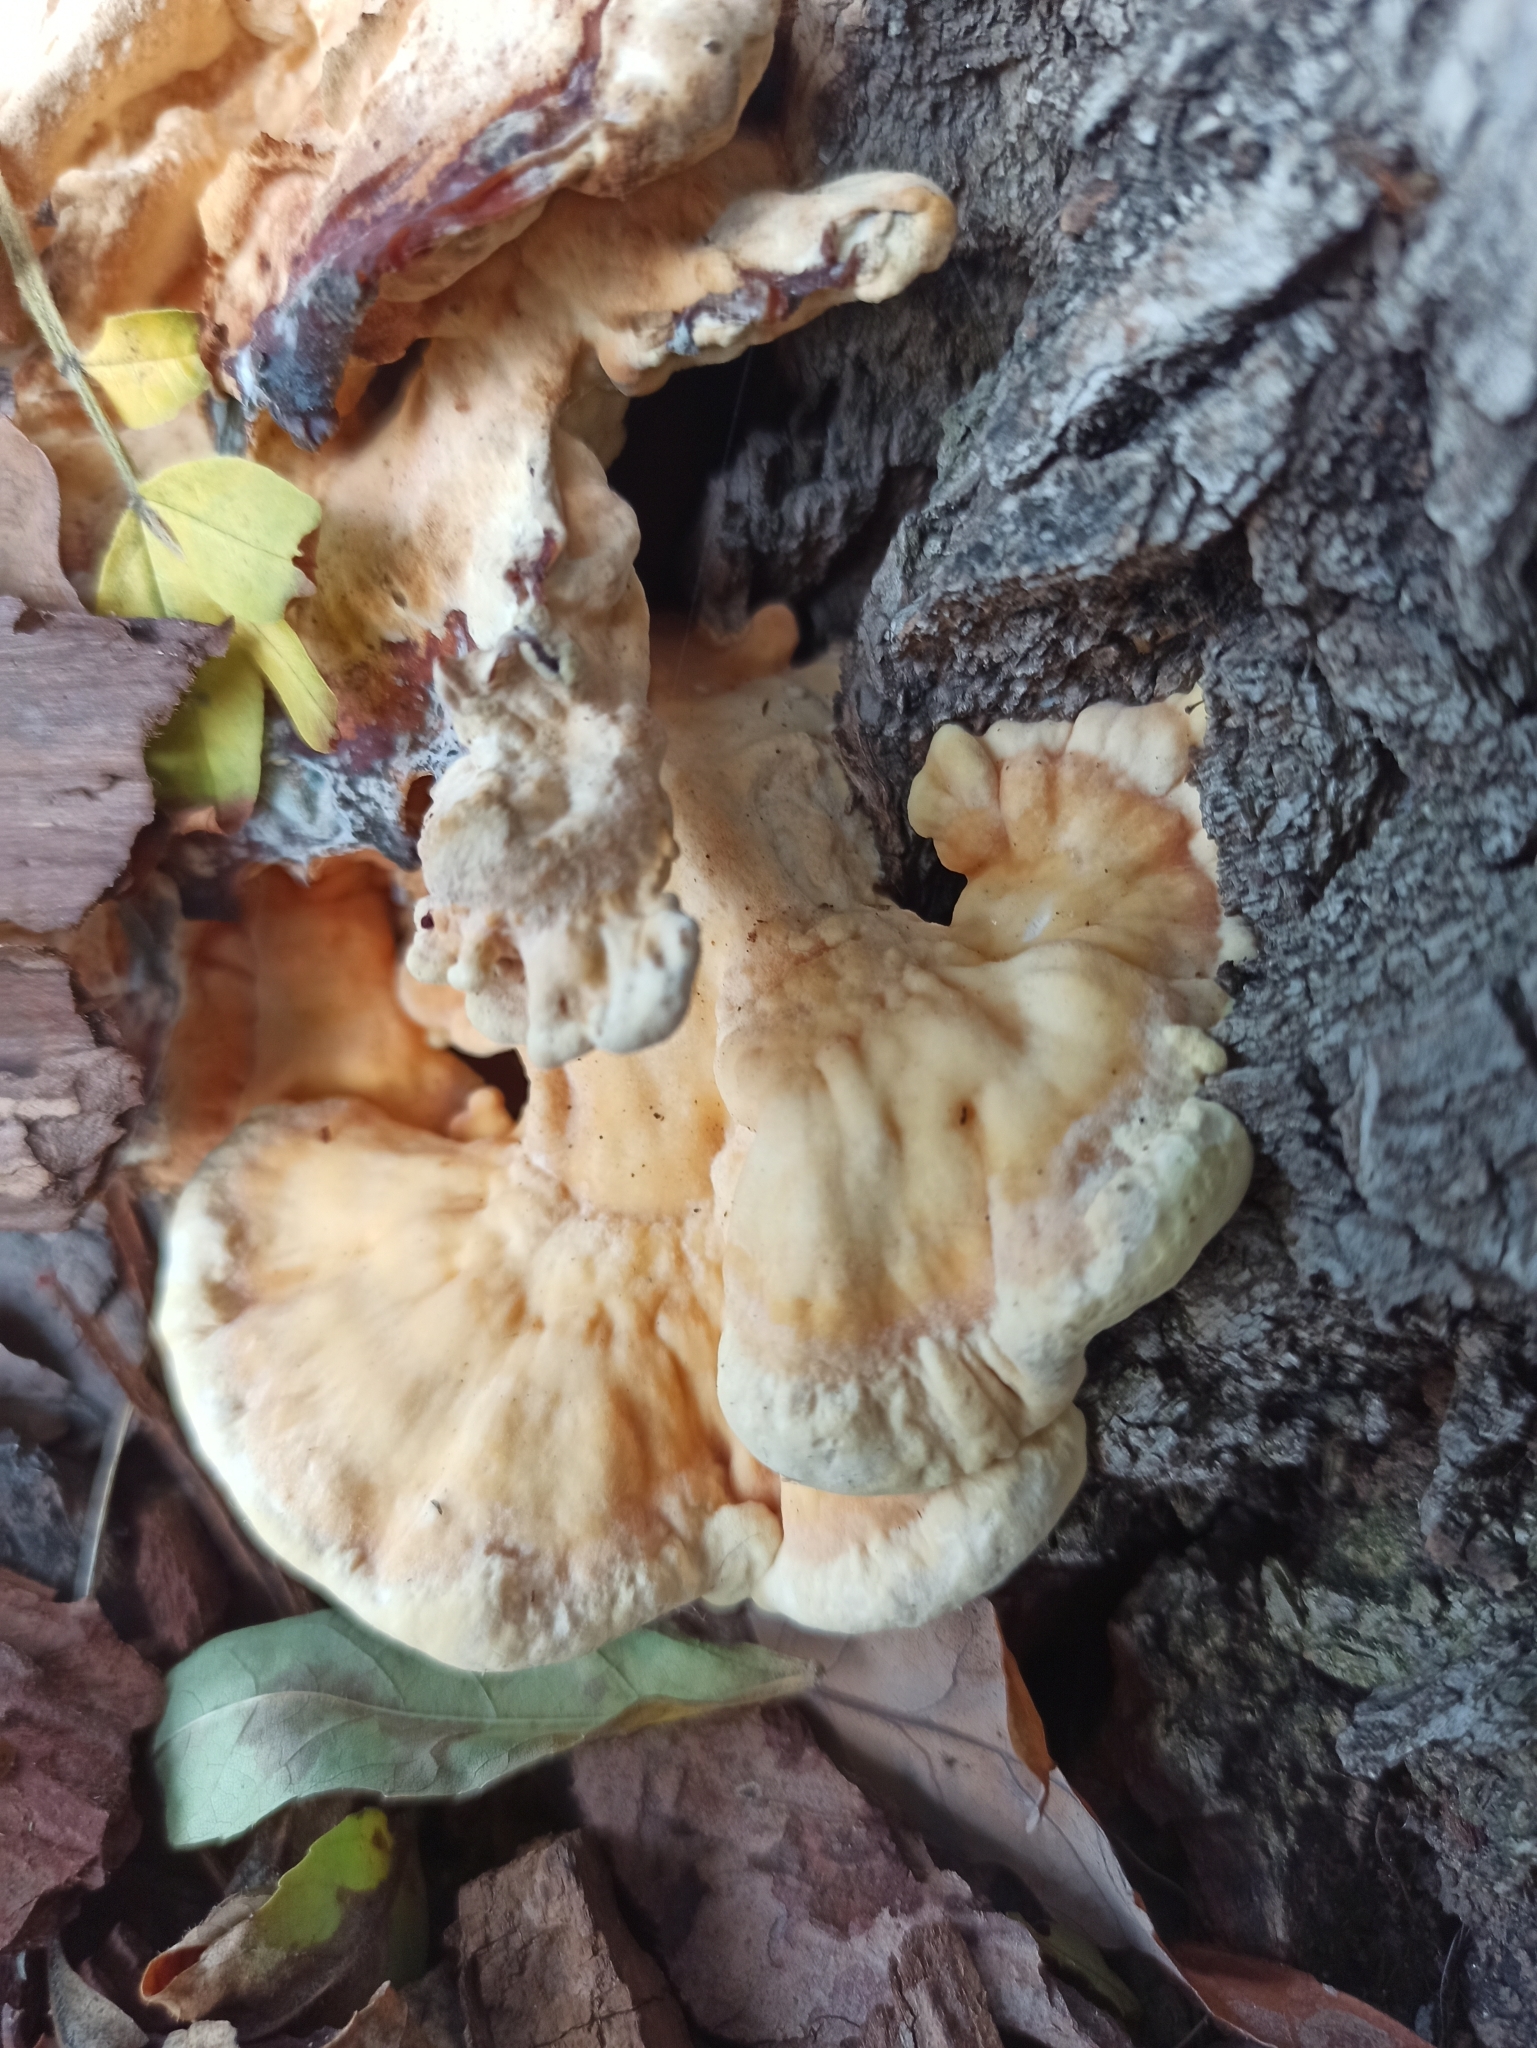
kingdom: Fungi
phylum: Basidiomycota
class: Agaricomycetes
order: Polyporales
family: Laetiporaceae
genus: Laetiporus
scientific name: Laetiporus sulphureus
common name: Chicken of the woods
